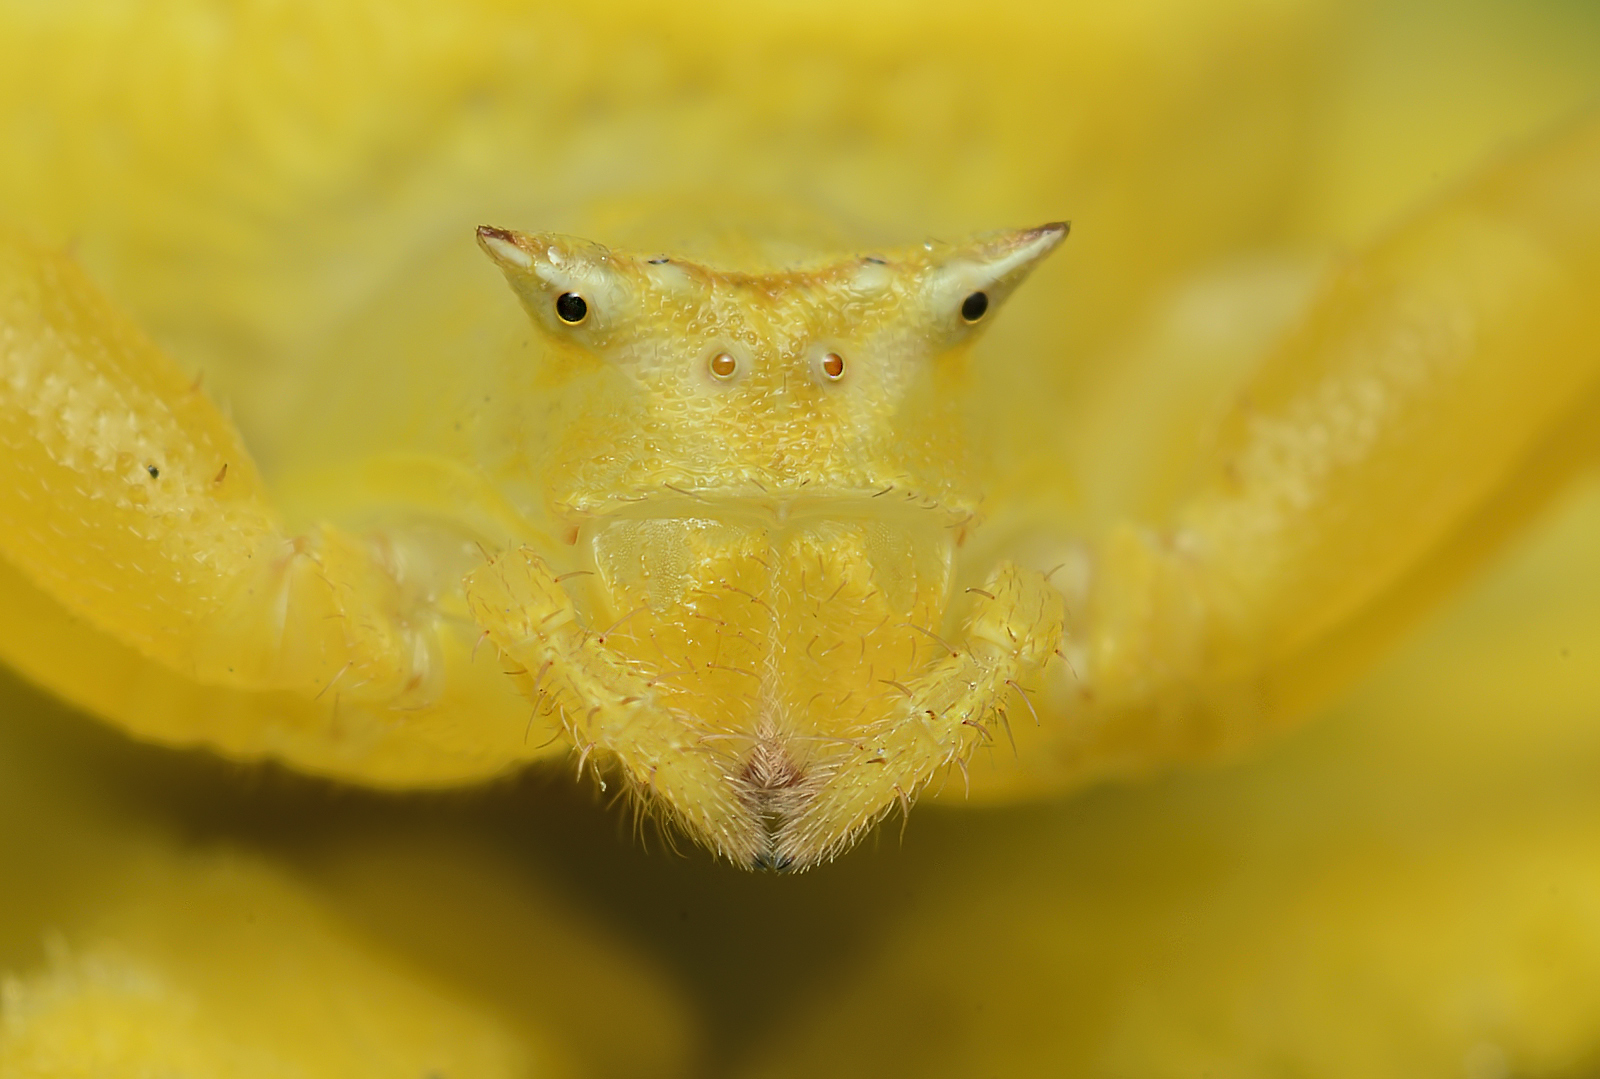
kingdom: Animalia
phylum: Arthropoda
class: Arachnida
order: Araneae
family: Thomisidae
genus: Thomisus
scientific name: Thomisus spectabilis
